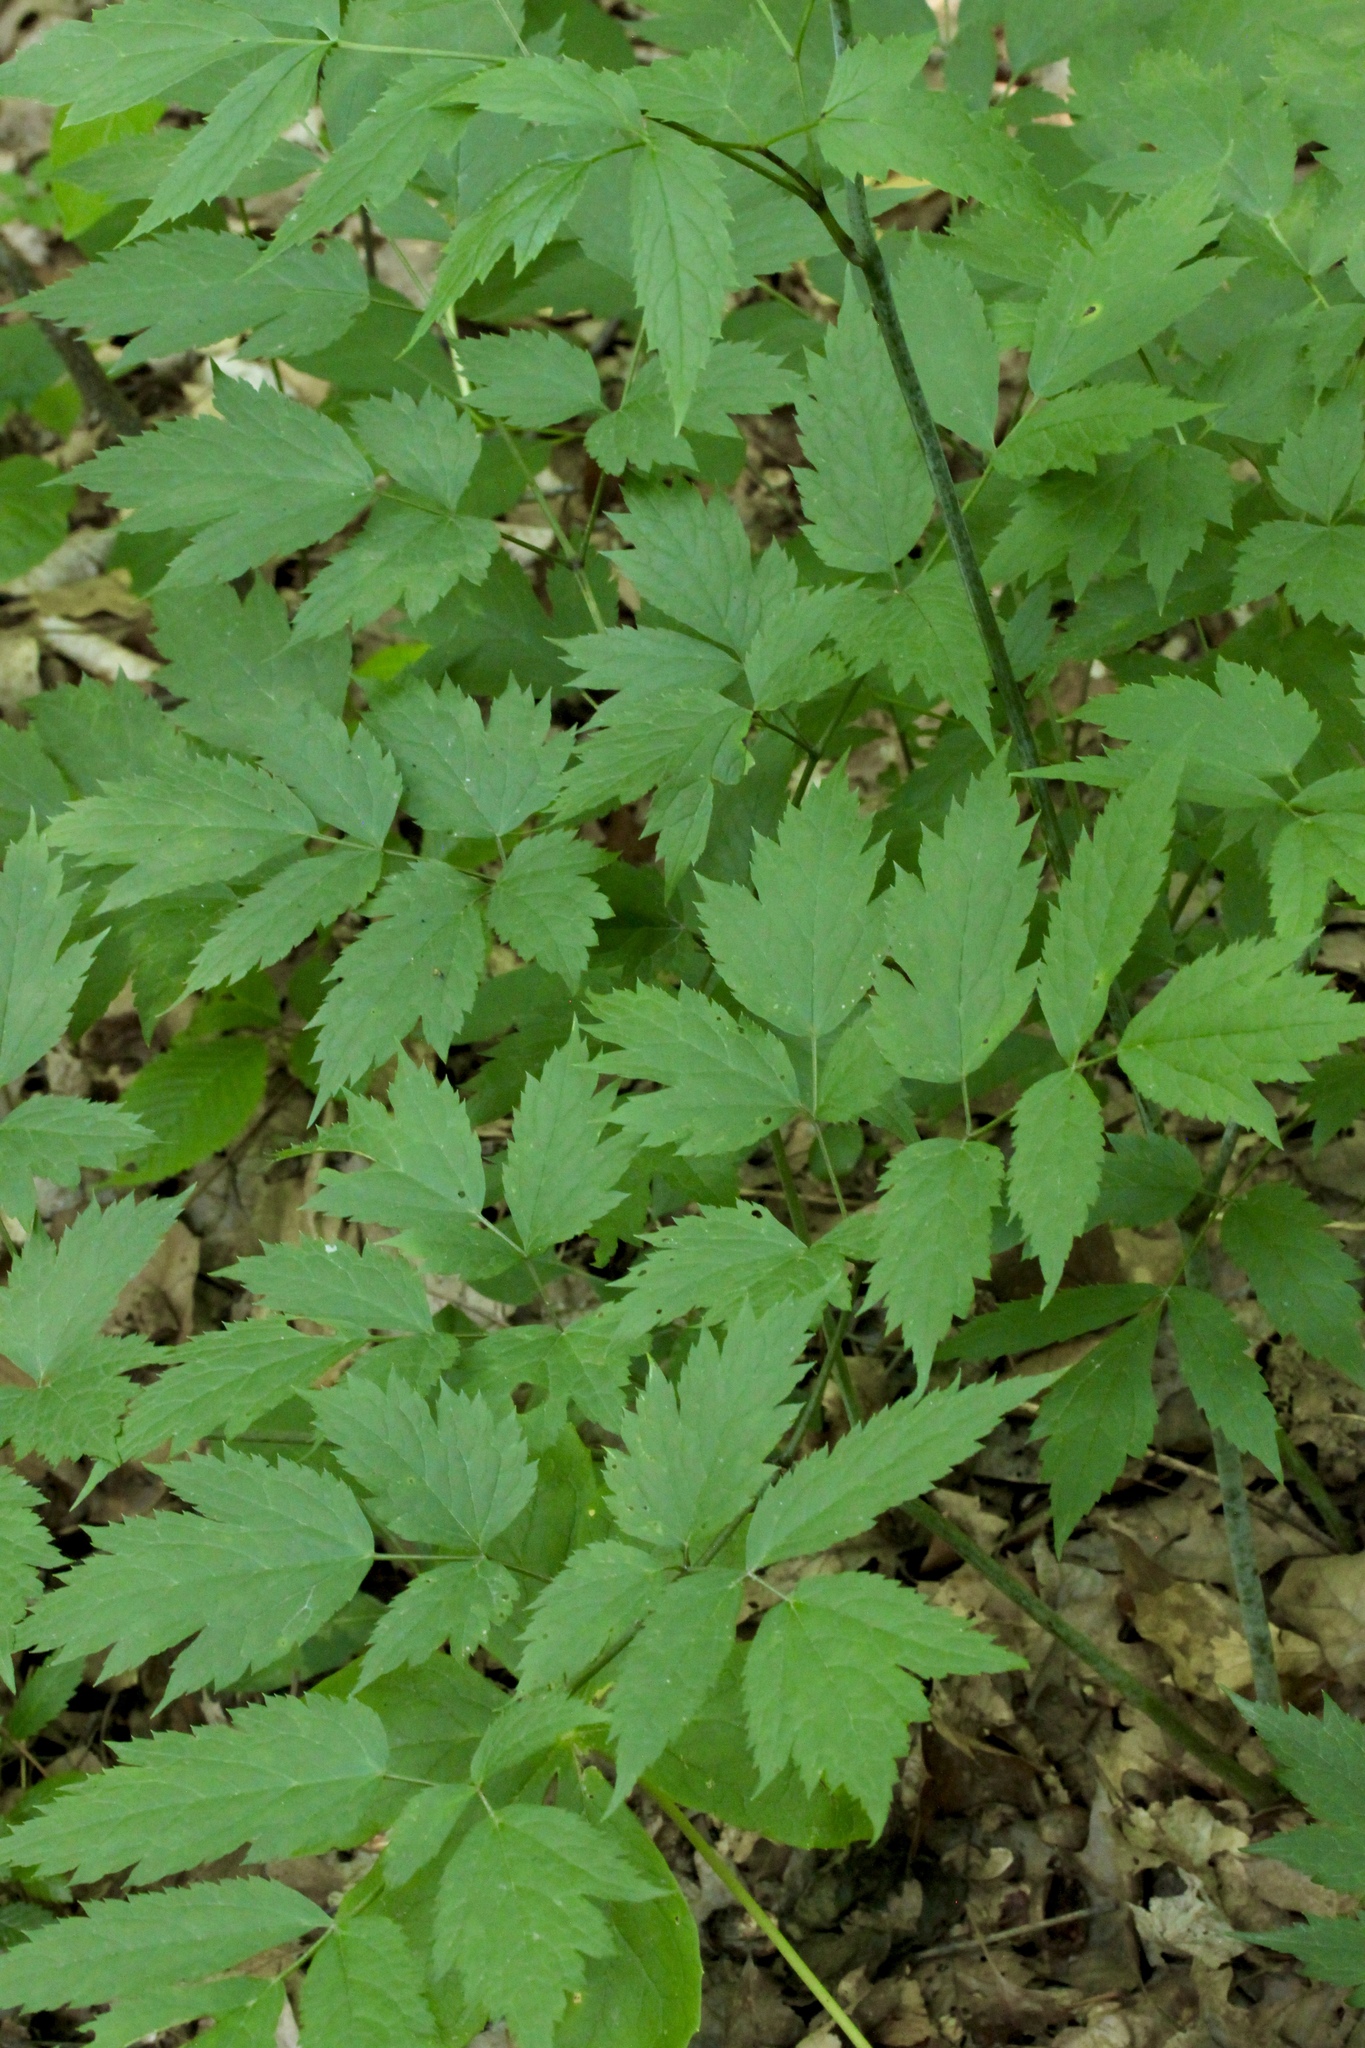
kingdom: Plantae
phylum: Tracheophyta
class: Magnoliopsida
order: Ranunculales
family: Ranunculaceae
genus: Actaea
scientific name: Actaea racemosa
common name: Black cohosh
